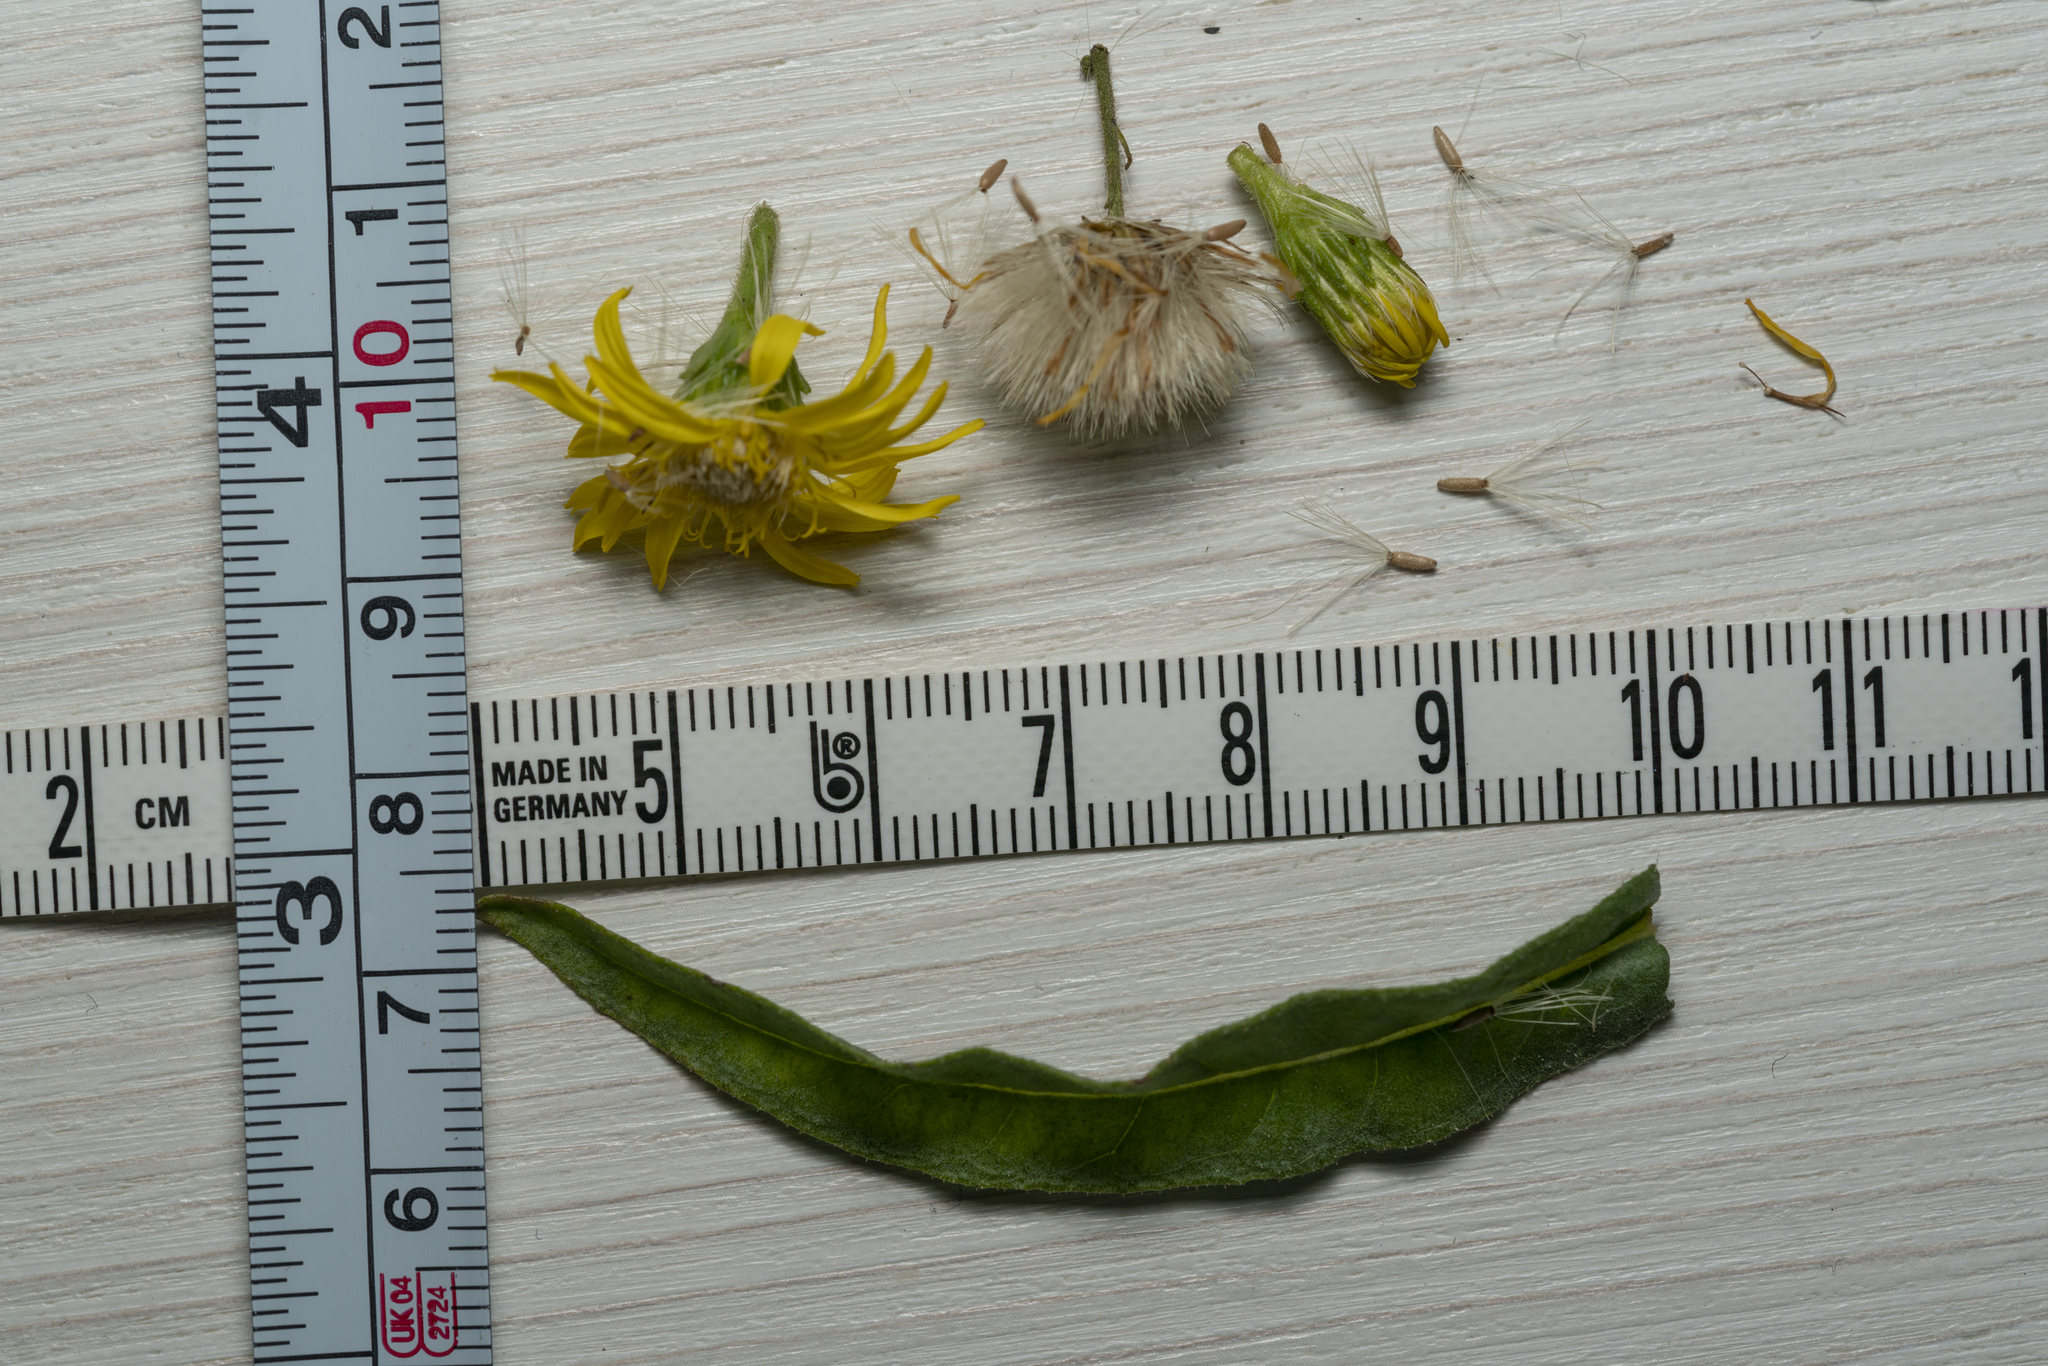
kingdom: Plantae
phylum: Tracheophyta
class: Magnoliopsida
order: Asterales
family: Asteraceae
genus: Dittrichia
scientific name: Dittrichia viscosa
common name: Woody fleabane
